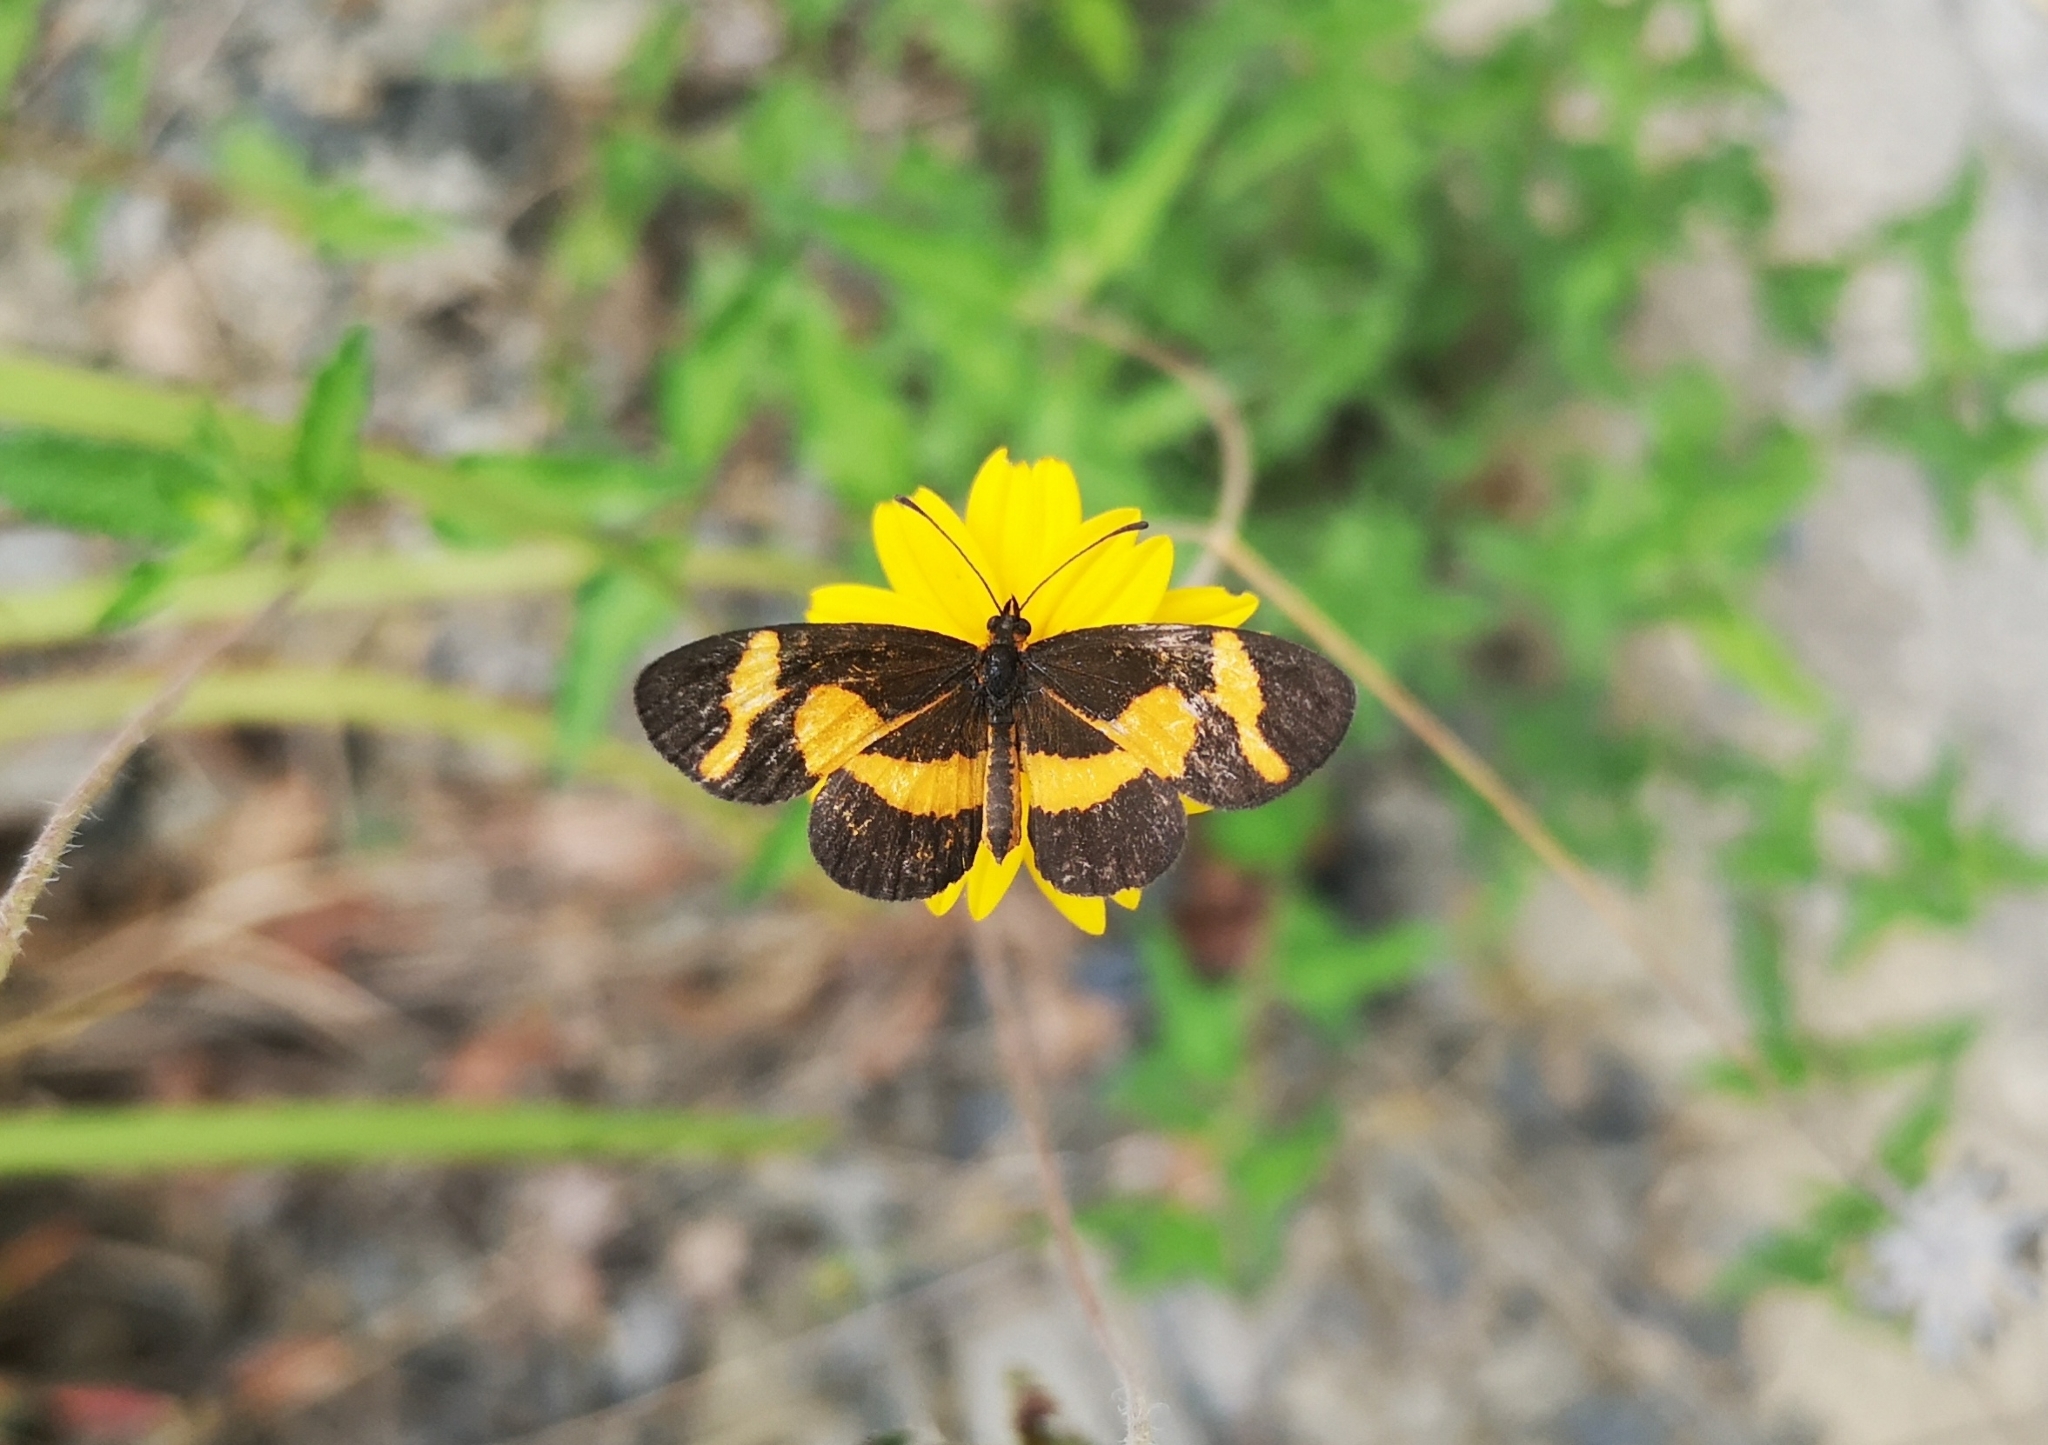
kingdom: Animalia
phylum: Arthropoda
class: Insecta
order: Lepidoptera
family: Nymphalidae
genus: Microtia
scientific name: Microtia elva
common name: Elf
